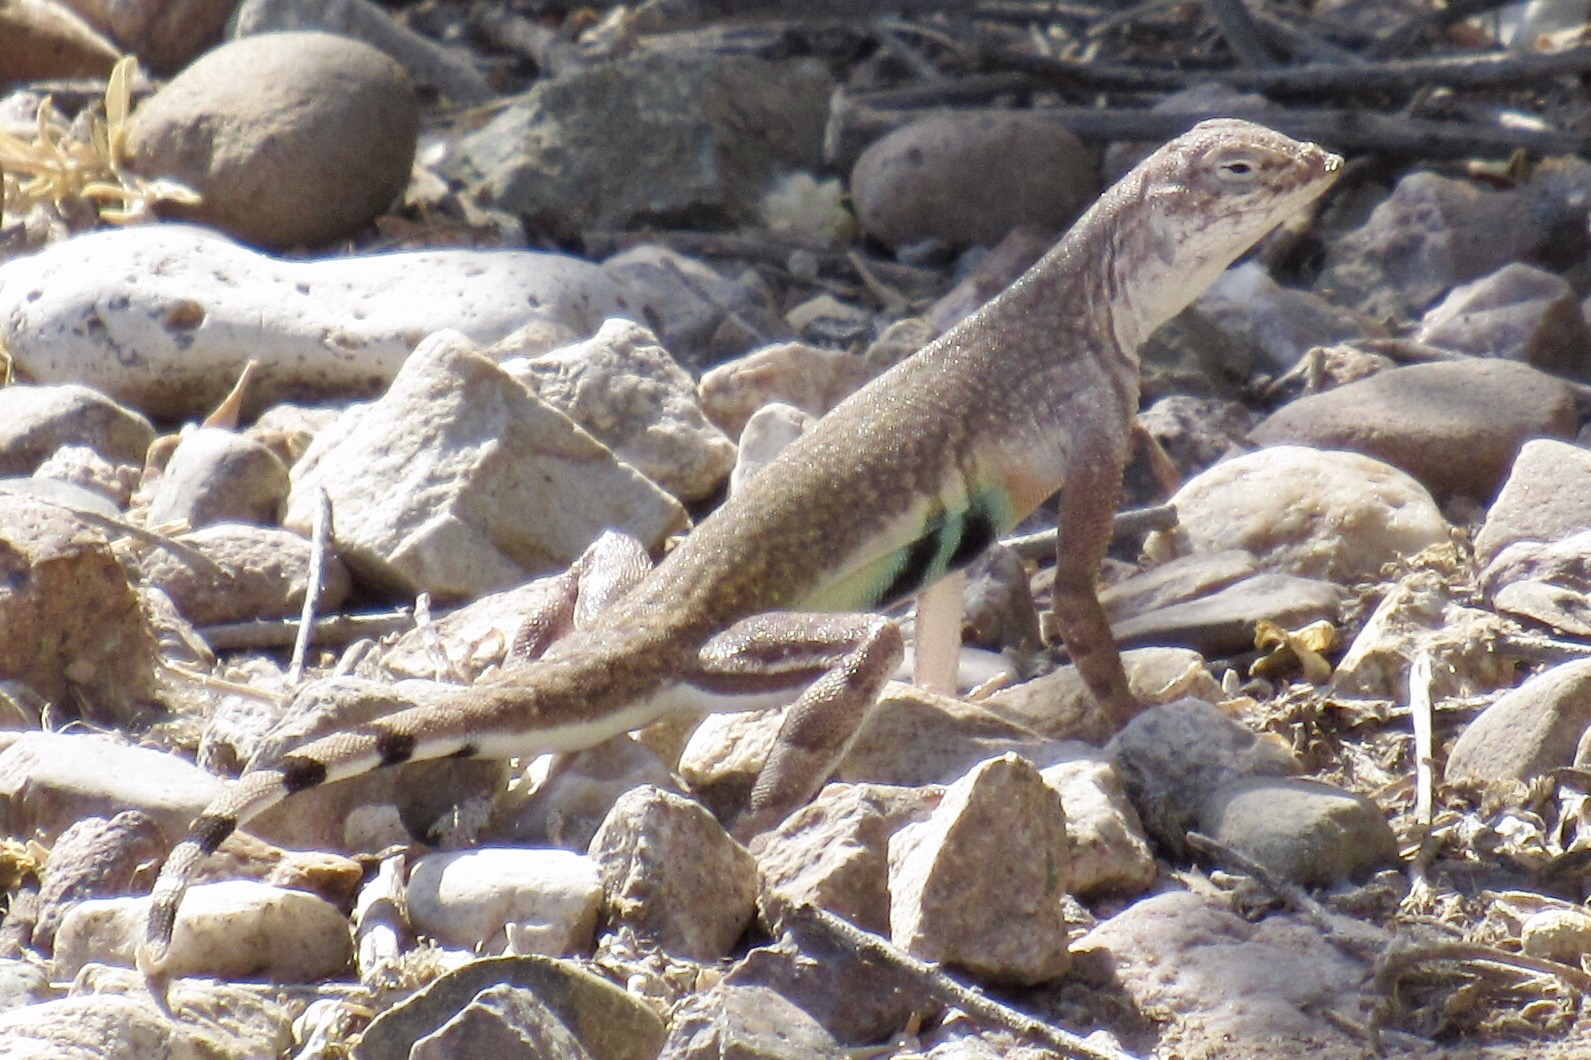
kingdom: Animalia
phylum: Chordata
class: Squamata
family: Phrynosomatidae
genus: Callisaurus
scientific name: Callisaurus draconoides
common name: Zebra-tailed lizard
